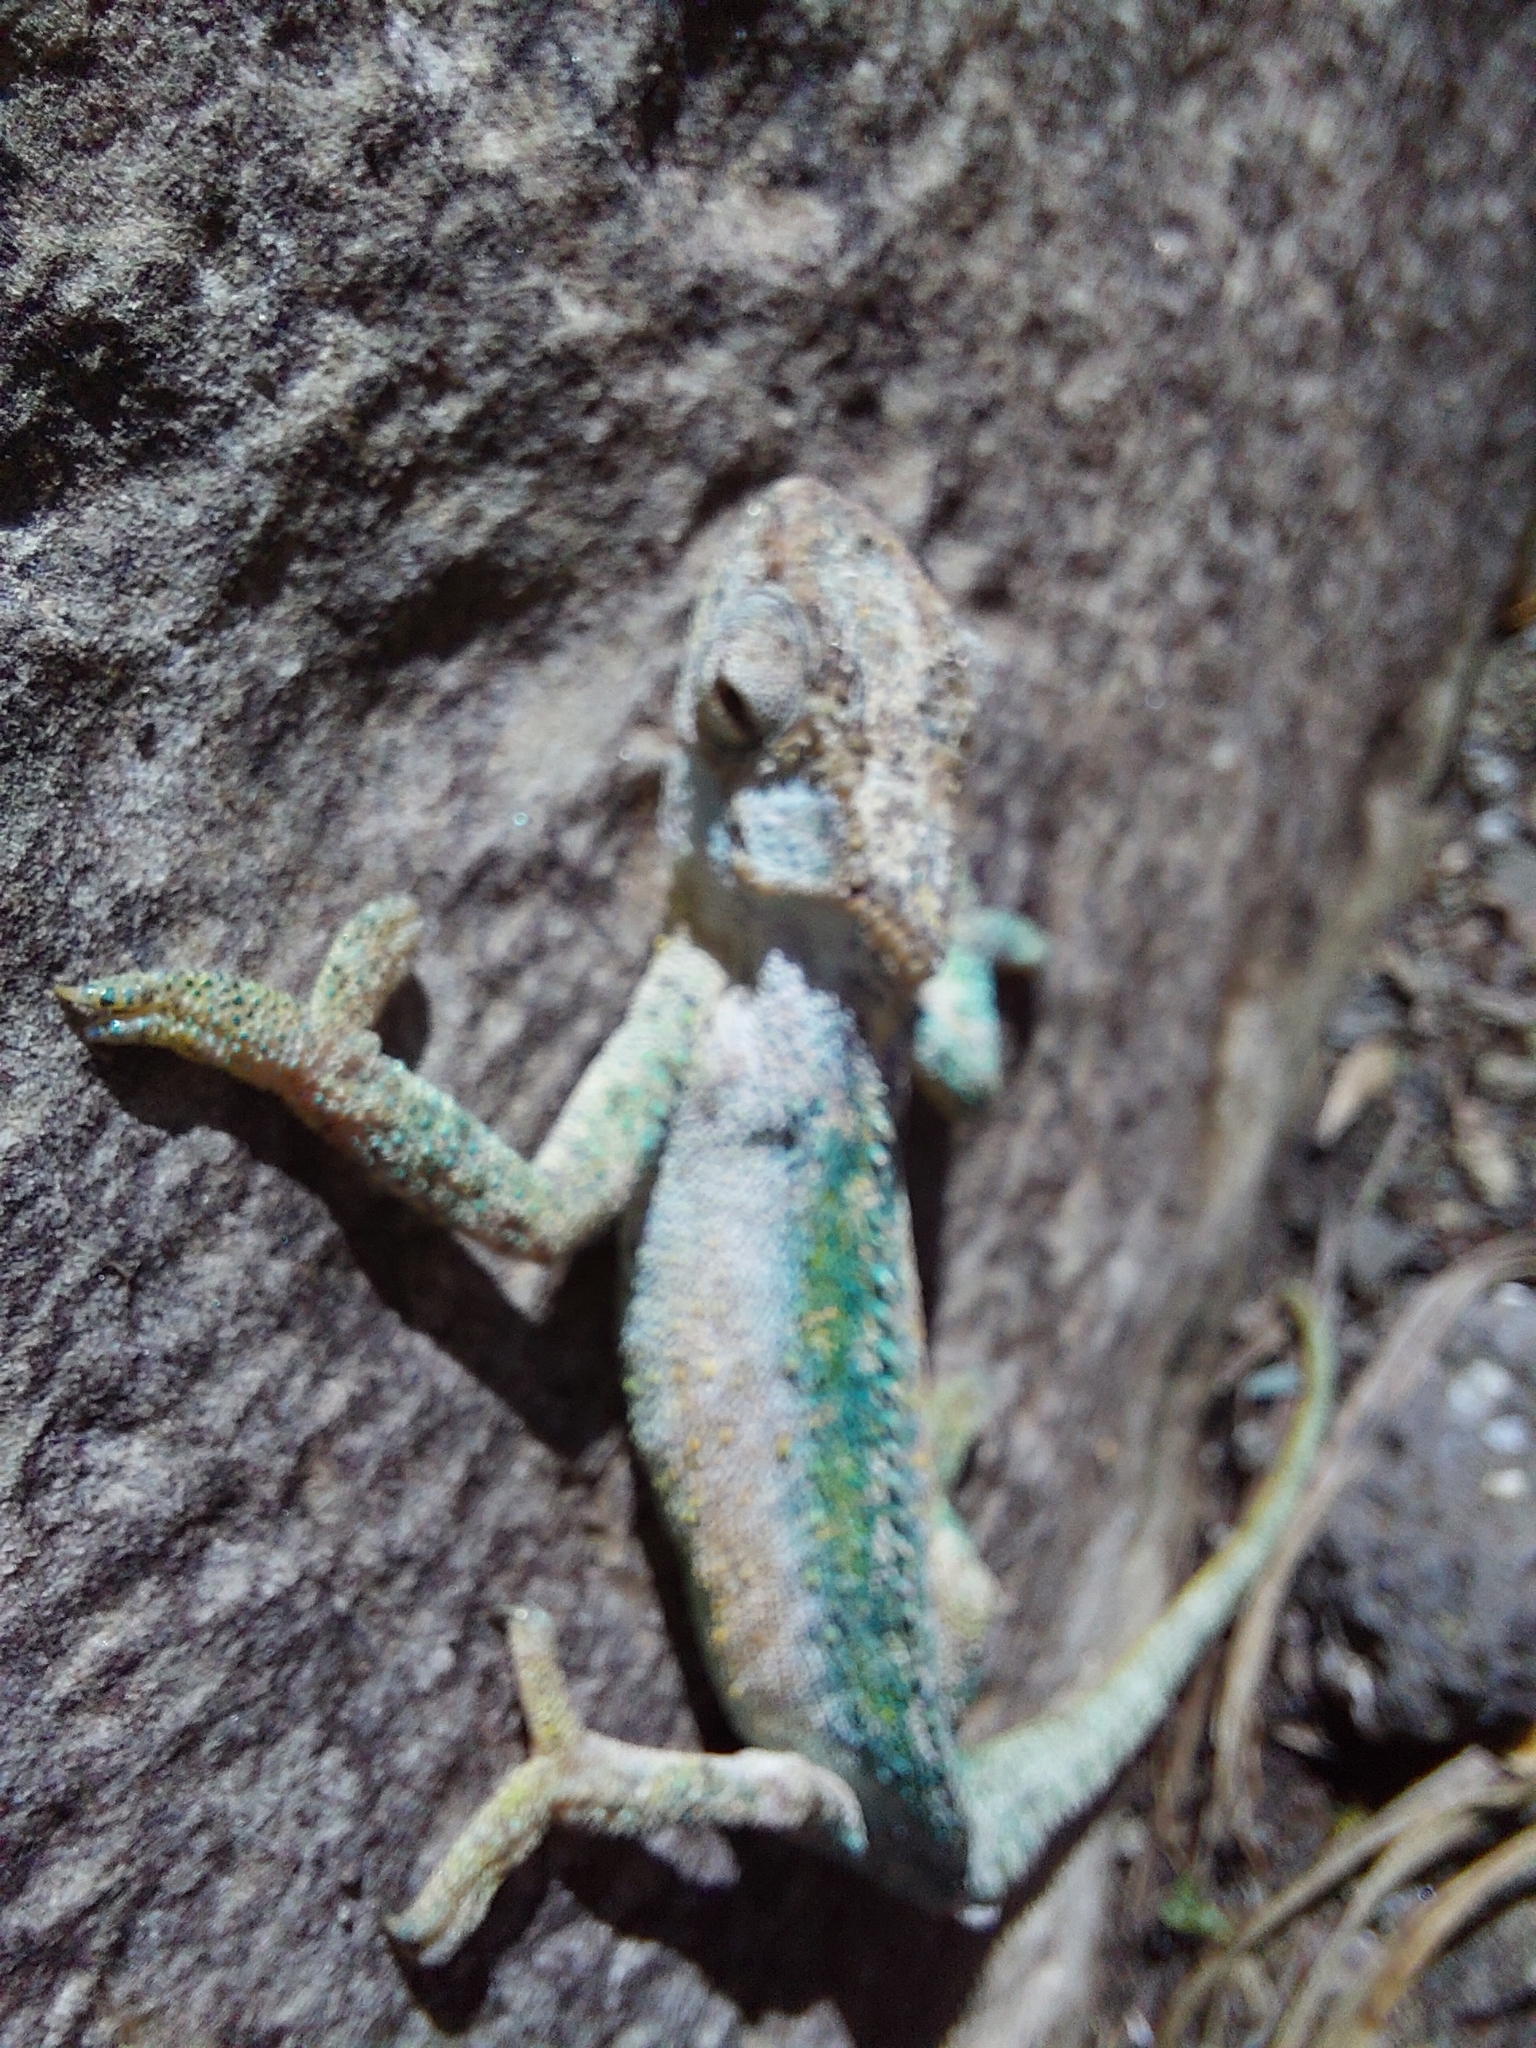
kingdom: Animalia
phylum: Chordata
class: Squamata
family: Chamaeleonidae
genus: Bradypodion
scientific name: Bradypodion dracomontanum
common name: Drakensberg dwarf chameleon
